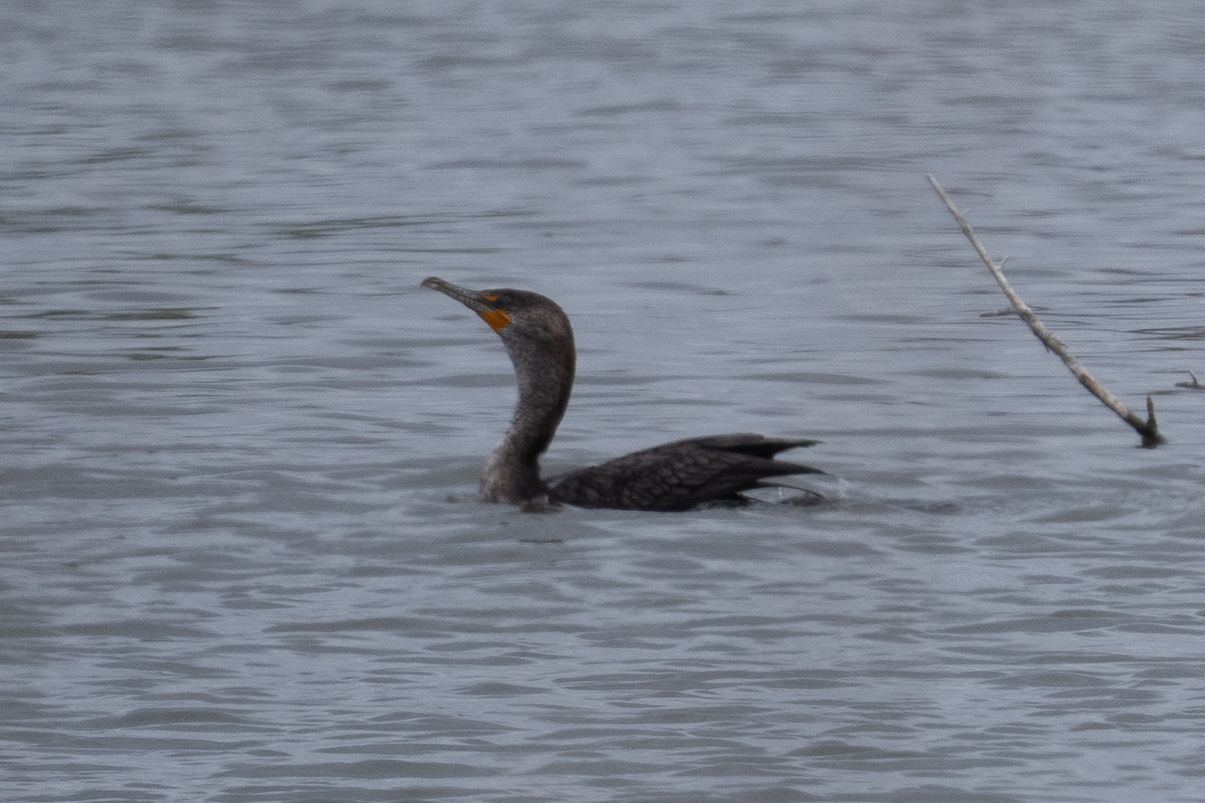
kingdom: Animalia
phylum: Chordata
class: Aves
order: Suliformes
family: Phalacrocoracidae
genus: Phalacrocorax
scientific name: Phalacrocorax auritus
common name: Double-crested cormorant
